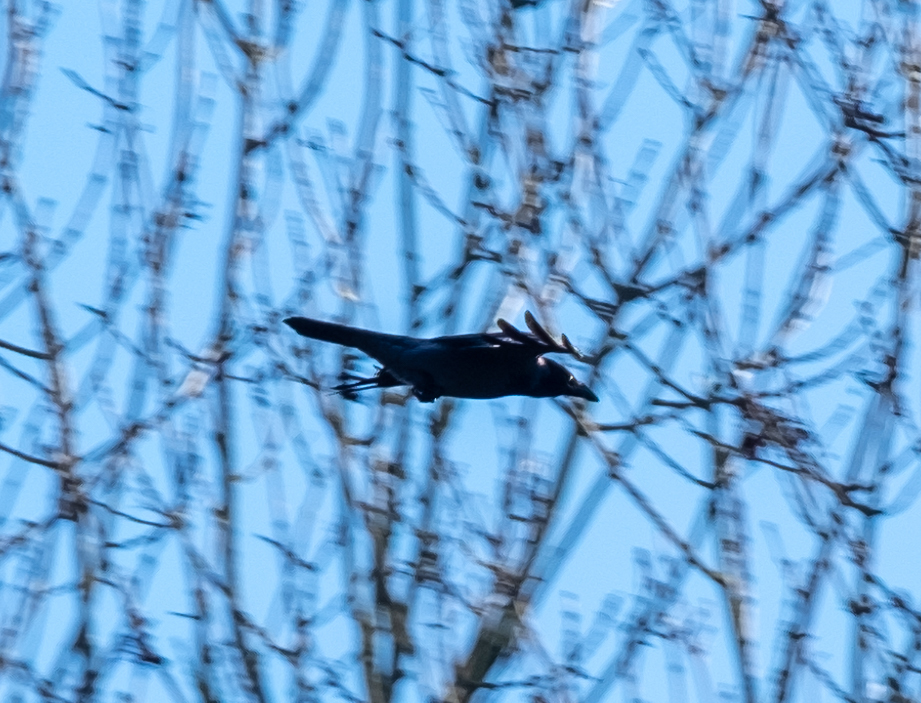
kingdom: Animalia
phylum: Chordata
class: Aves
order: Passeriformes
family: Corvidae
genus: Corvus
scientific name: Corvus cornix
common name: Hooded crow
